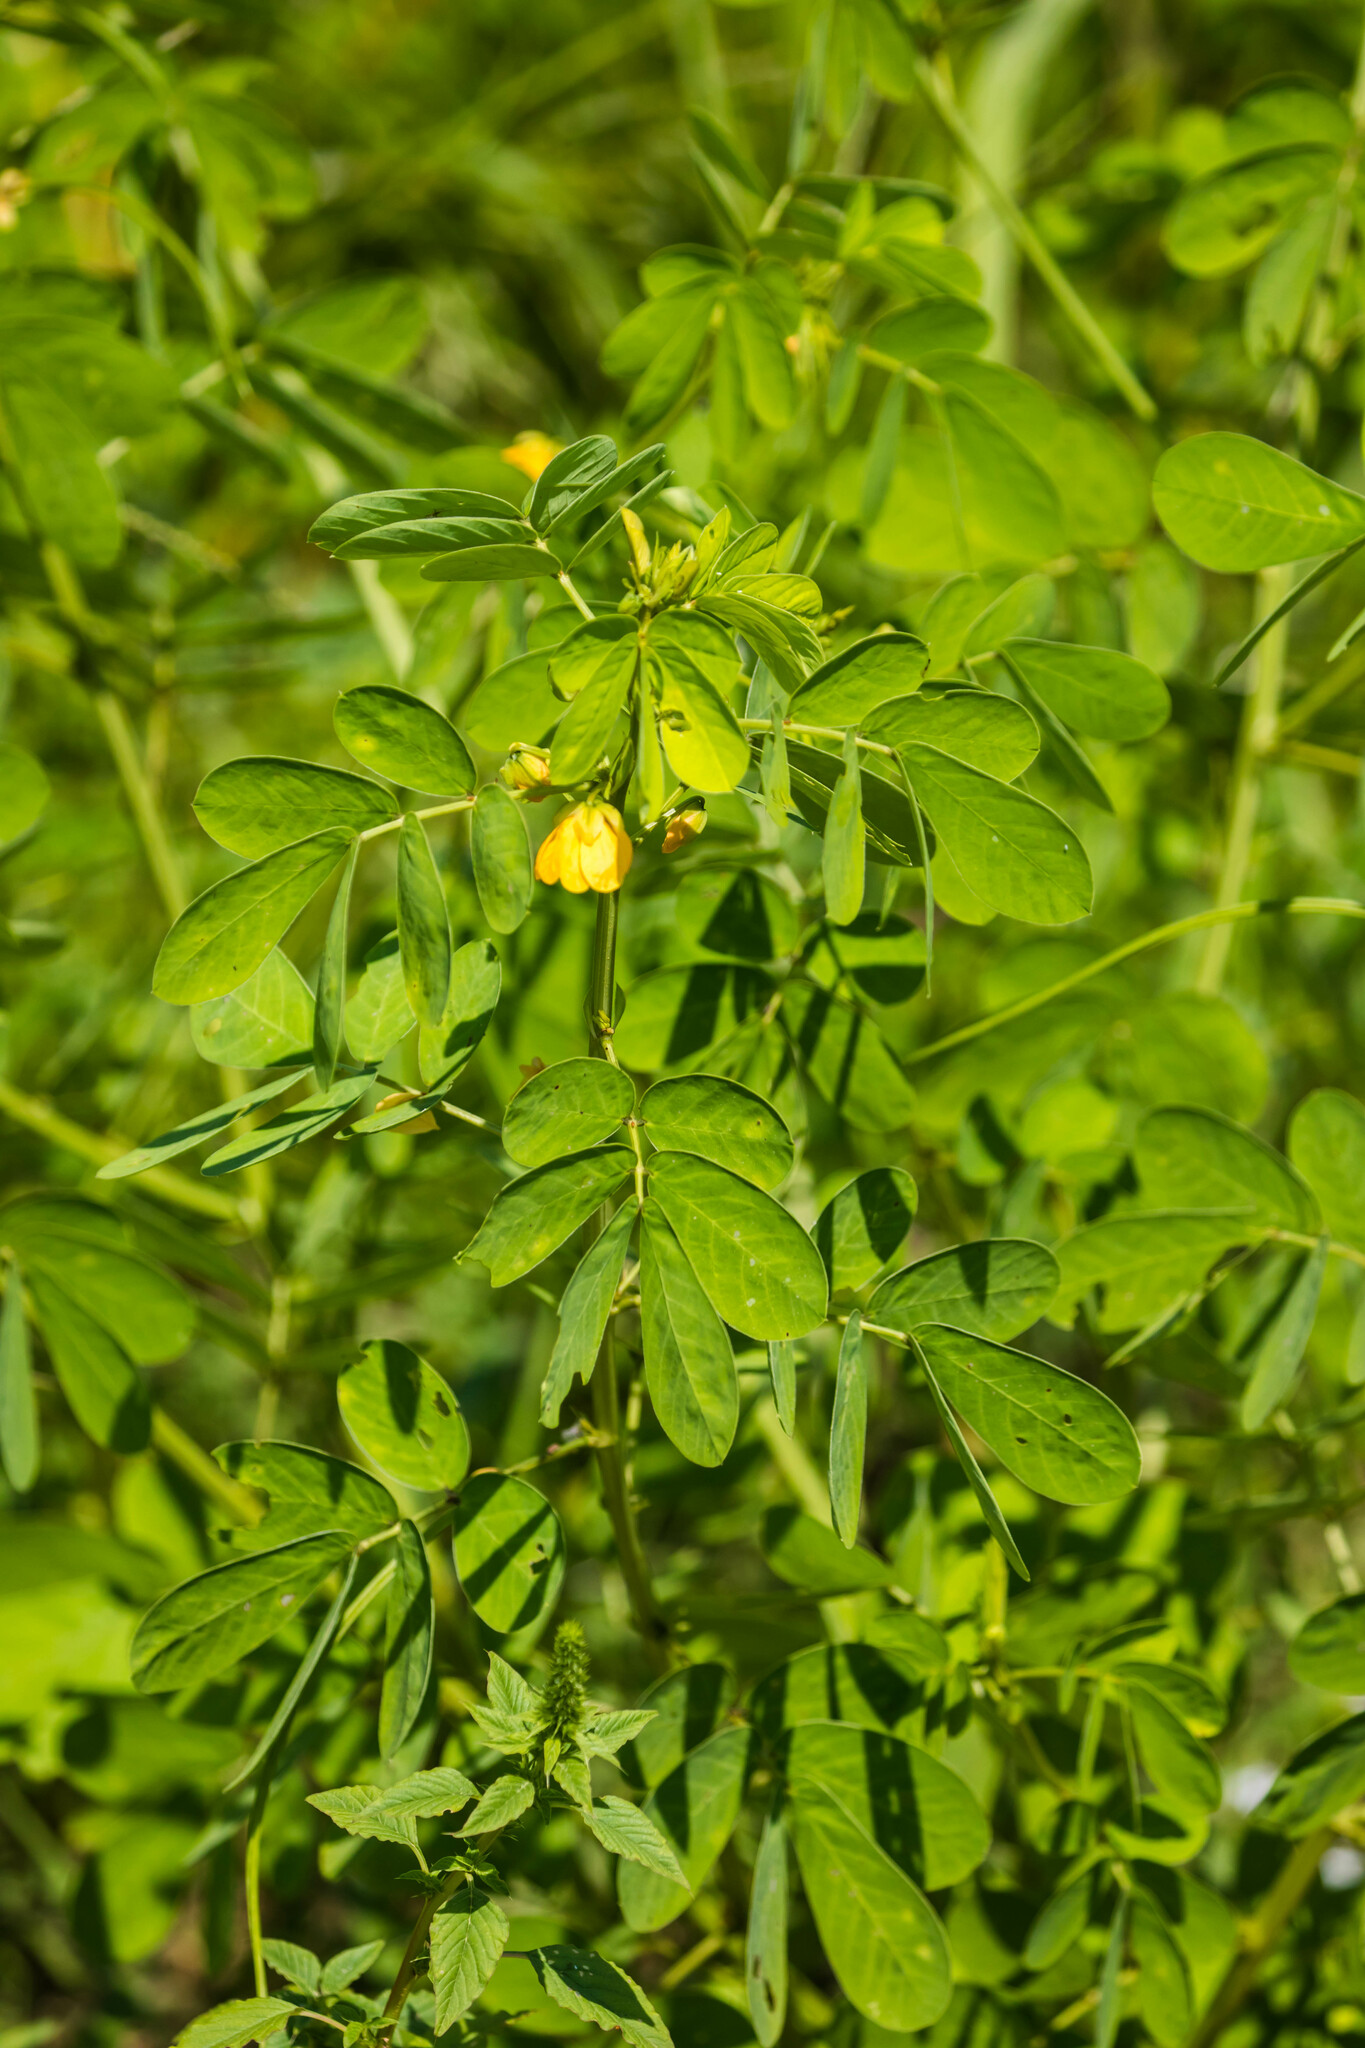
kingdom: Plantae
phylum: Tracheophyta
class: Magnoliopsida
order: Fabales
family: Fabaceae
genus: Senna
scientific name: Senna obtusifolia
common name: Java-bean
